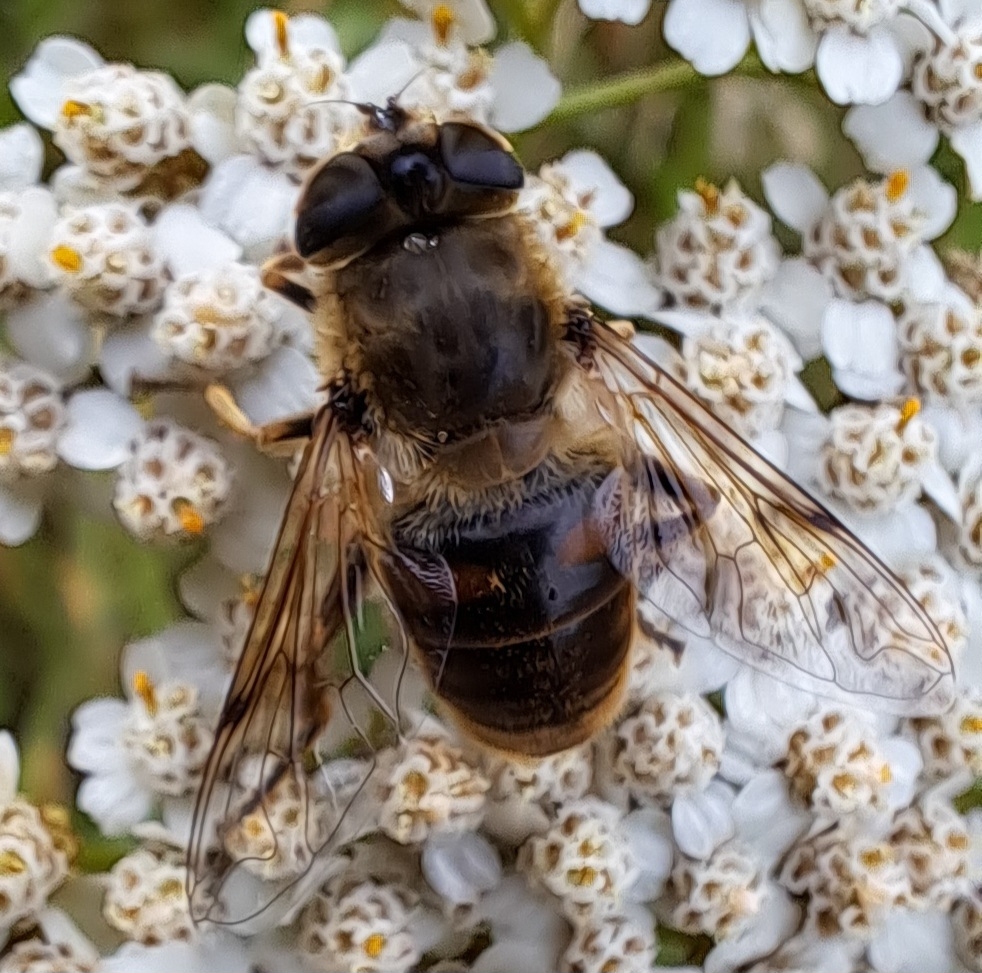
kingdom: Animalia
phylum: Arthropoda
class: Insecta
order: Diptera
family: Syrphidae
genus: Eristalis
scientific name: Eristalis tenax
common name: Drone fly
